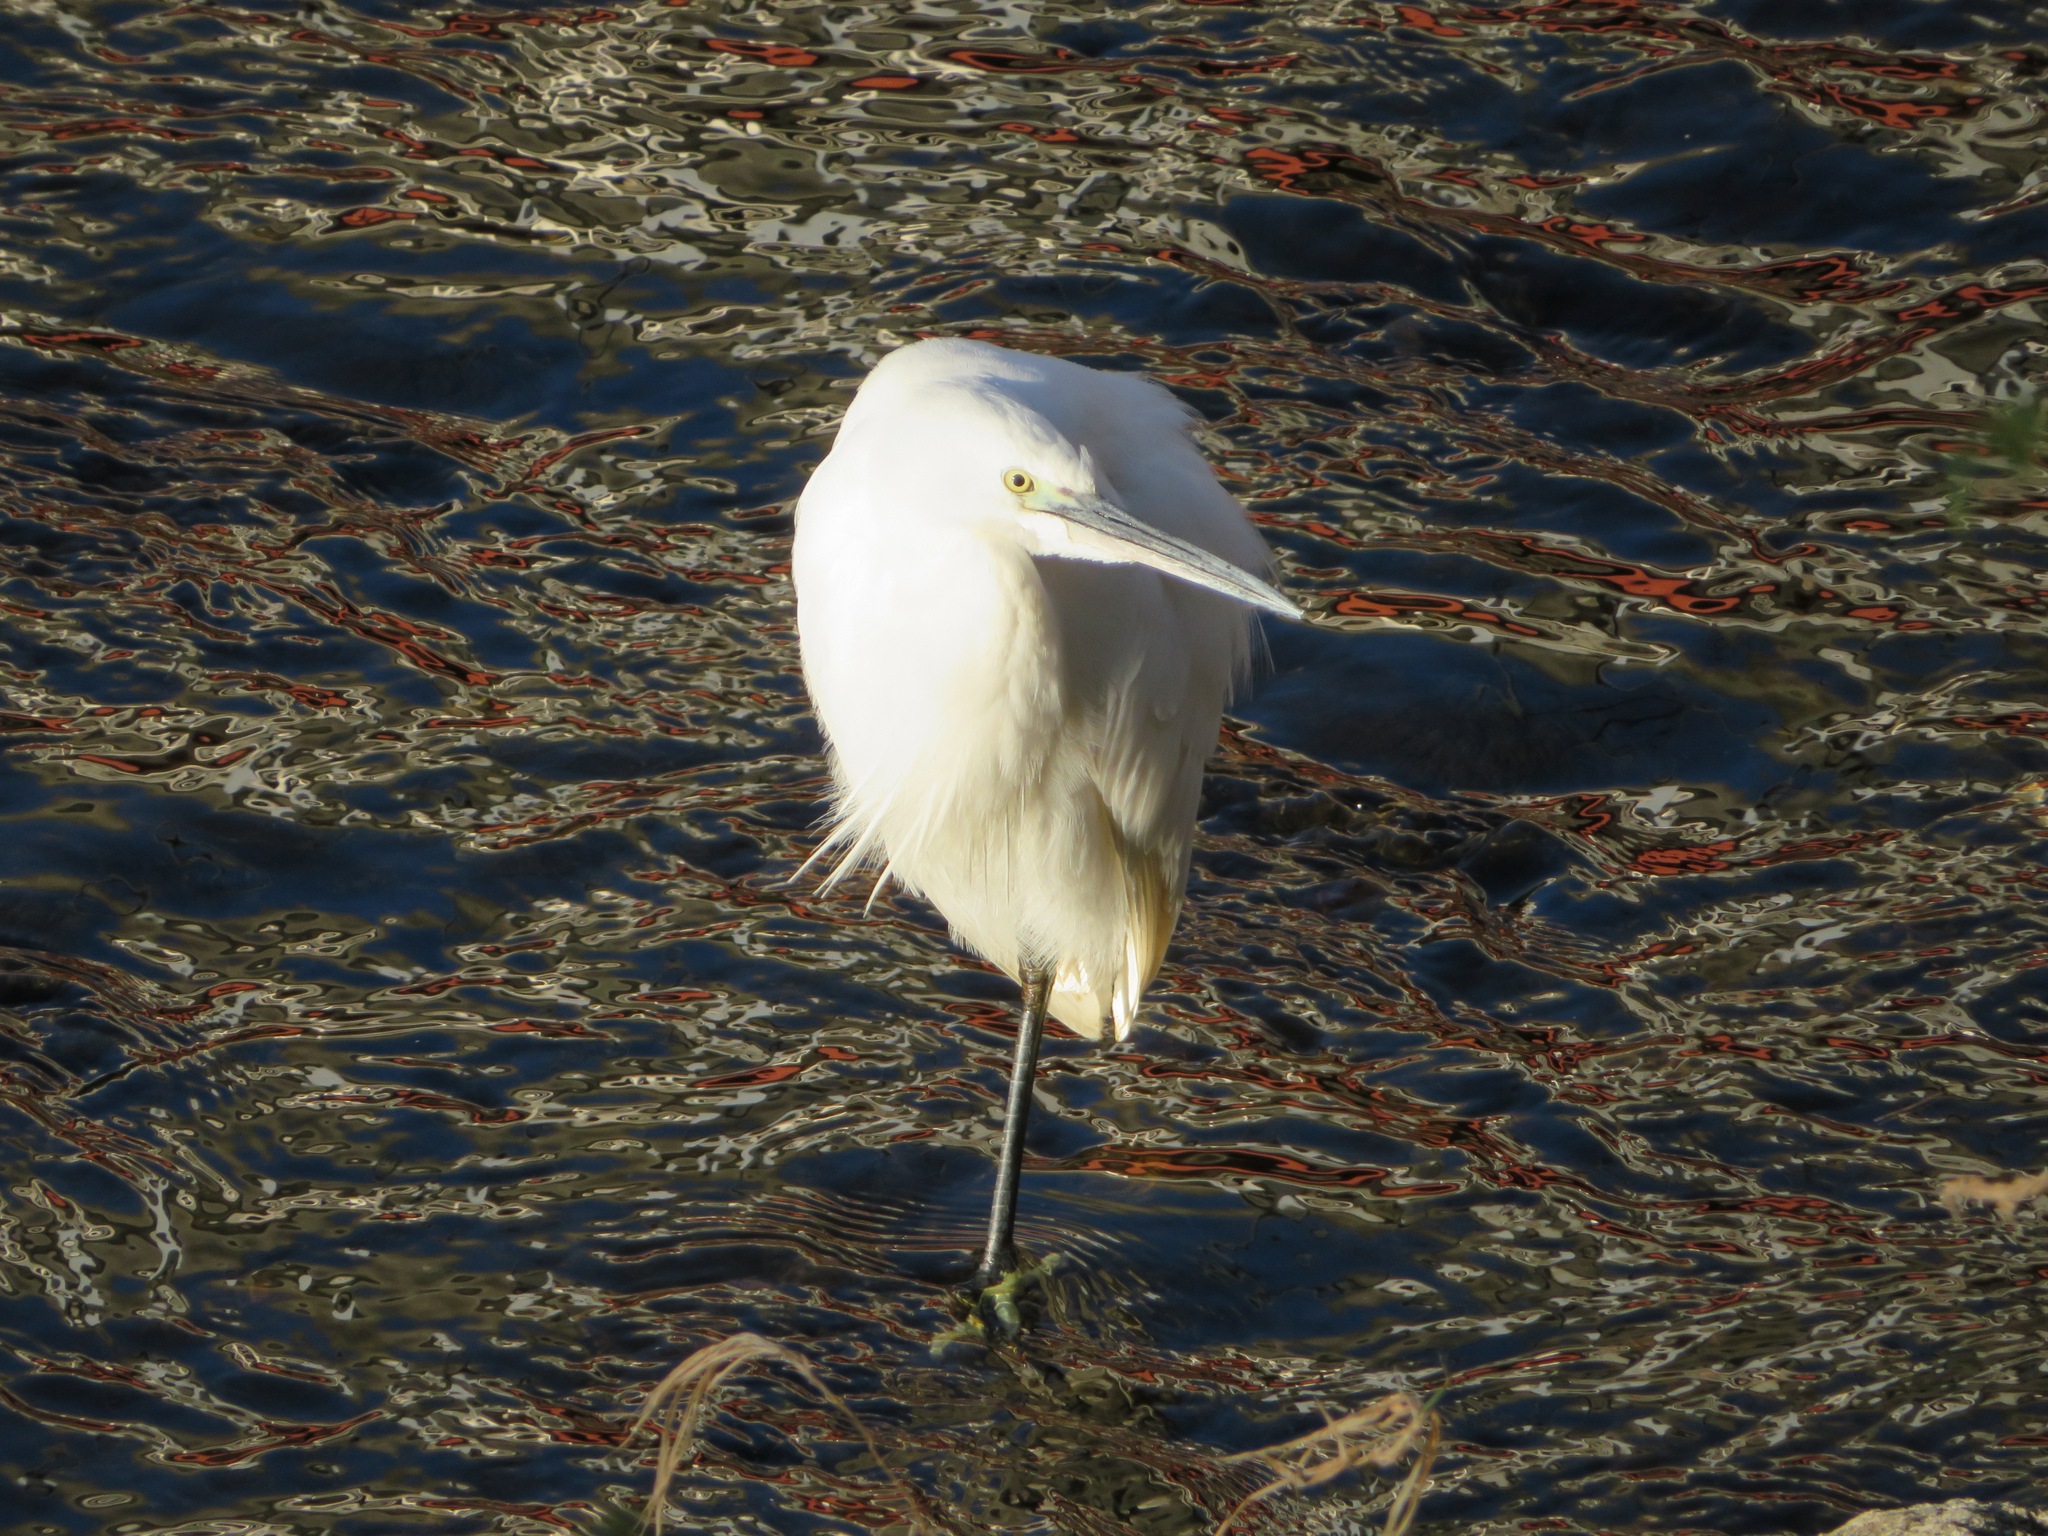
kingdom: Animalia
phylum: Chordata
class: Aves
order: Pelecaniformes
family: Ardeidae
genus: Egretta
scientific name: Egretta garzetta
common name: Little egret
